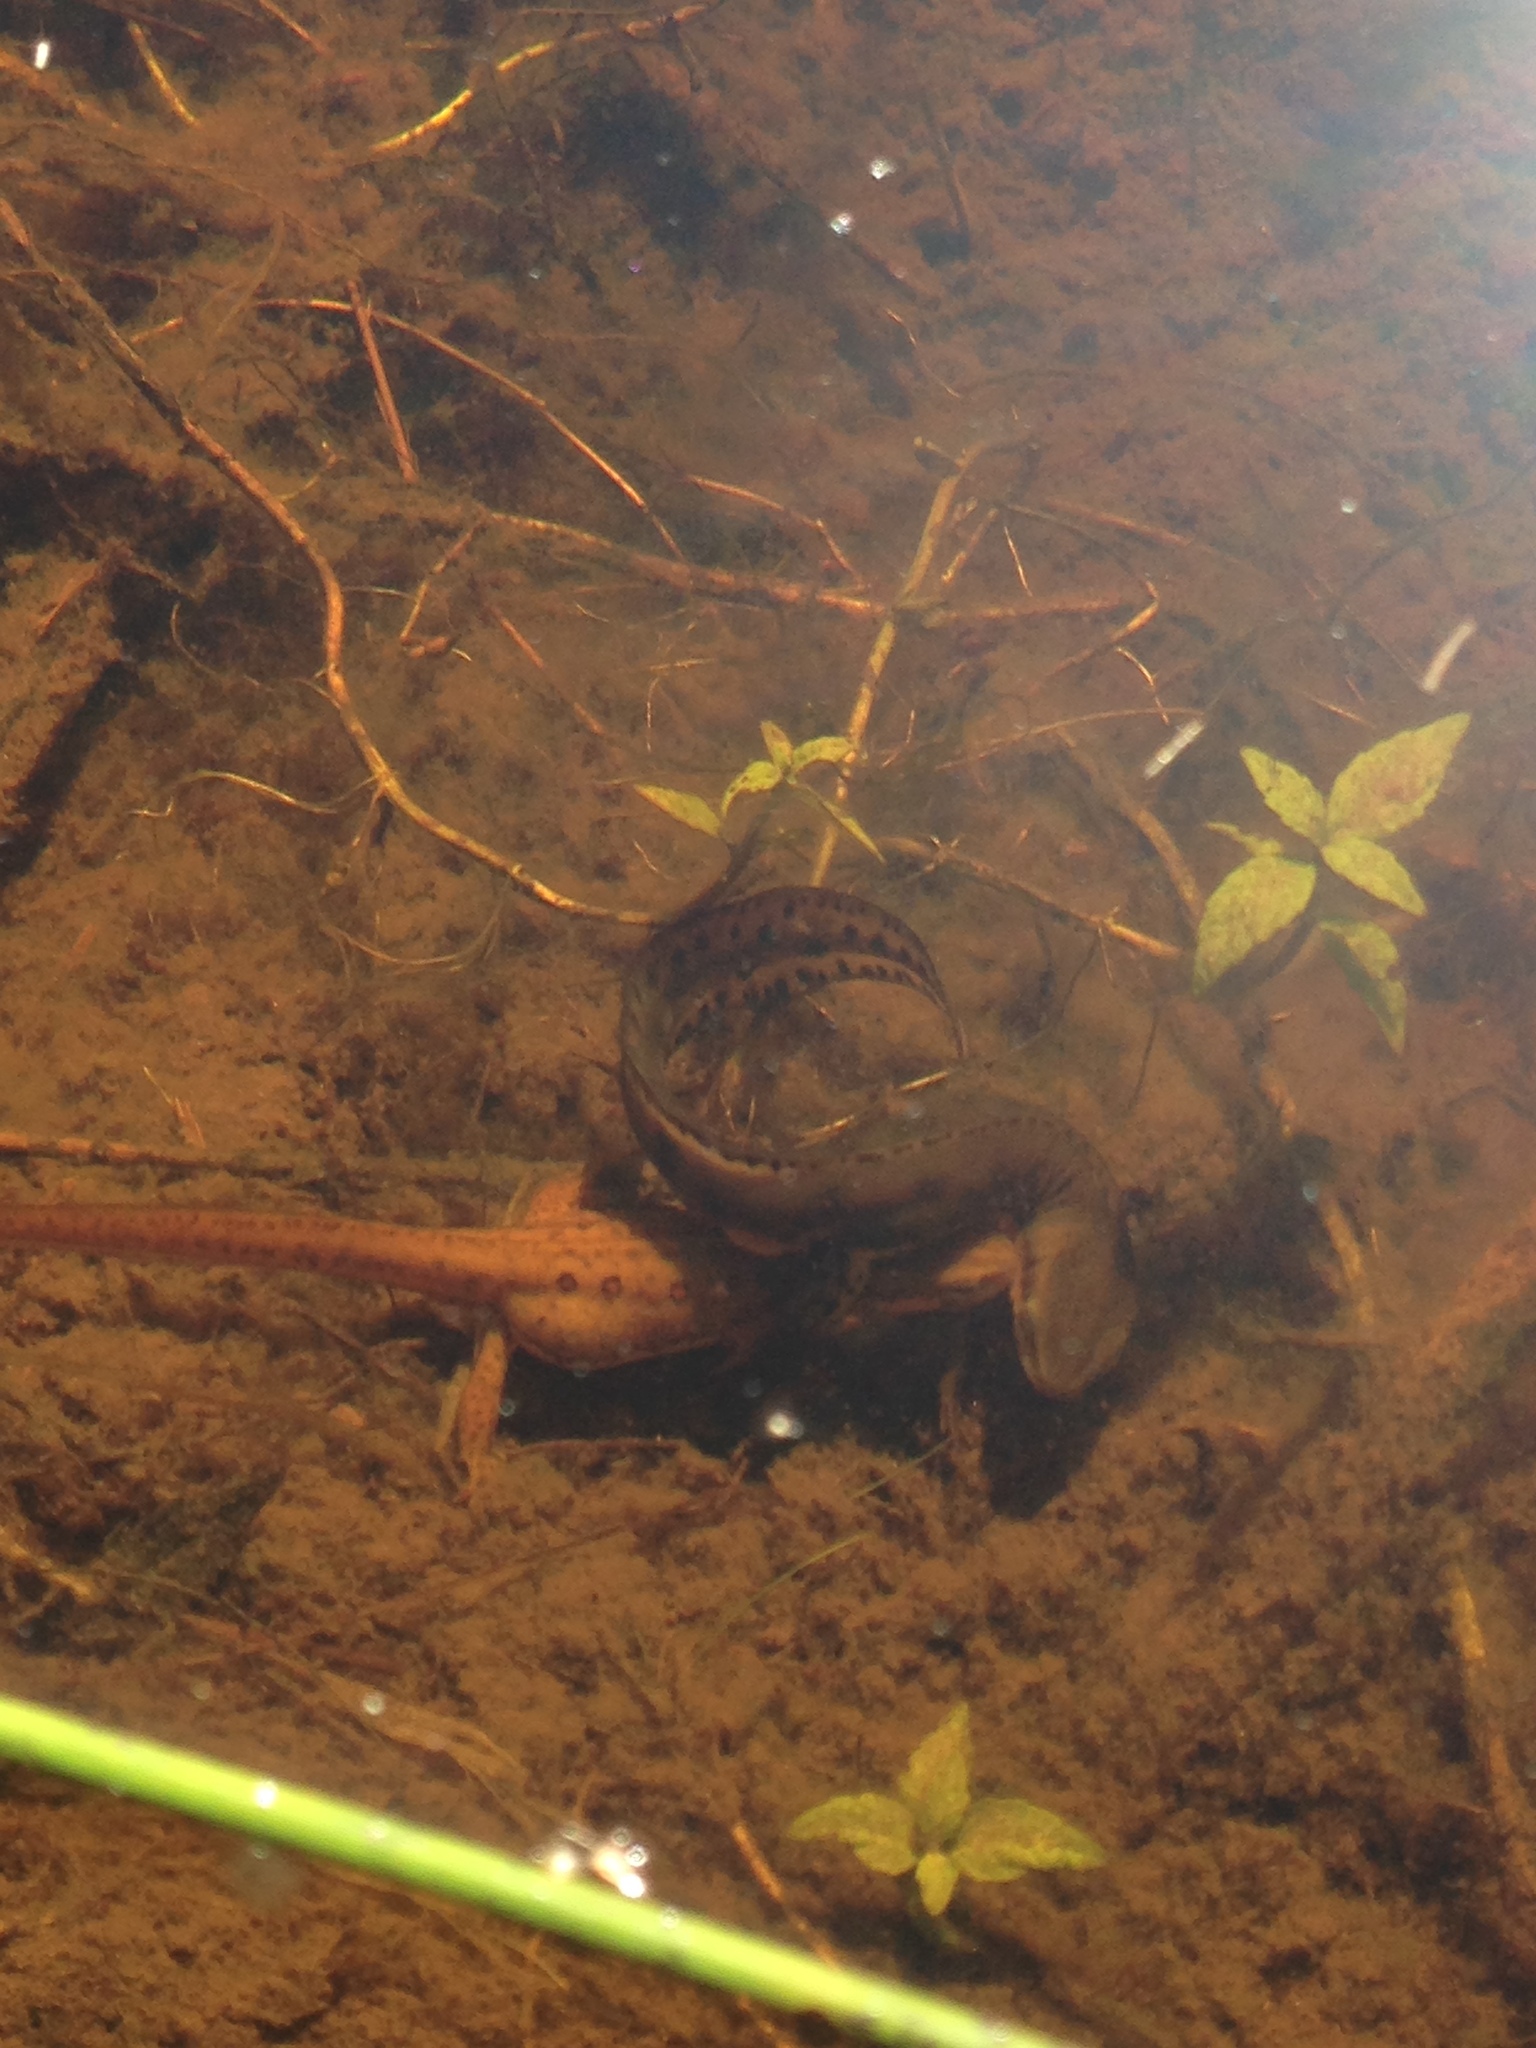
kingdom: Animalia
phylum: Chordata
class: Amphibia
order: Caudata
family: Salamandridae
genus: Notophthalmus
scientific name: Notophthalmus viridescens
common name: Eastern newt
